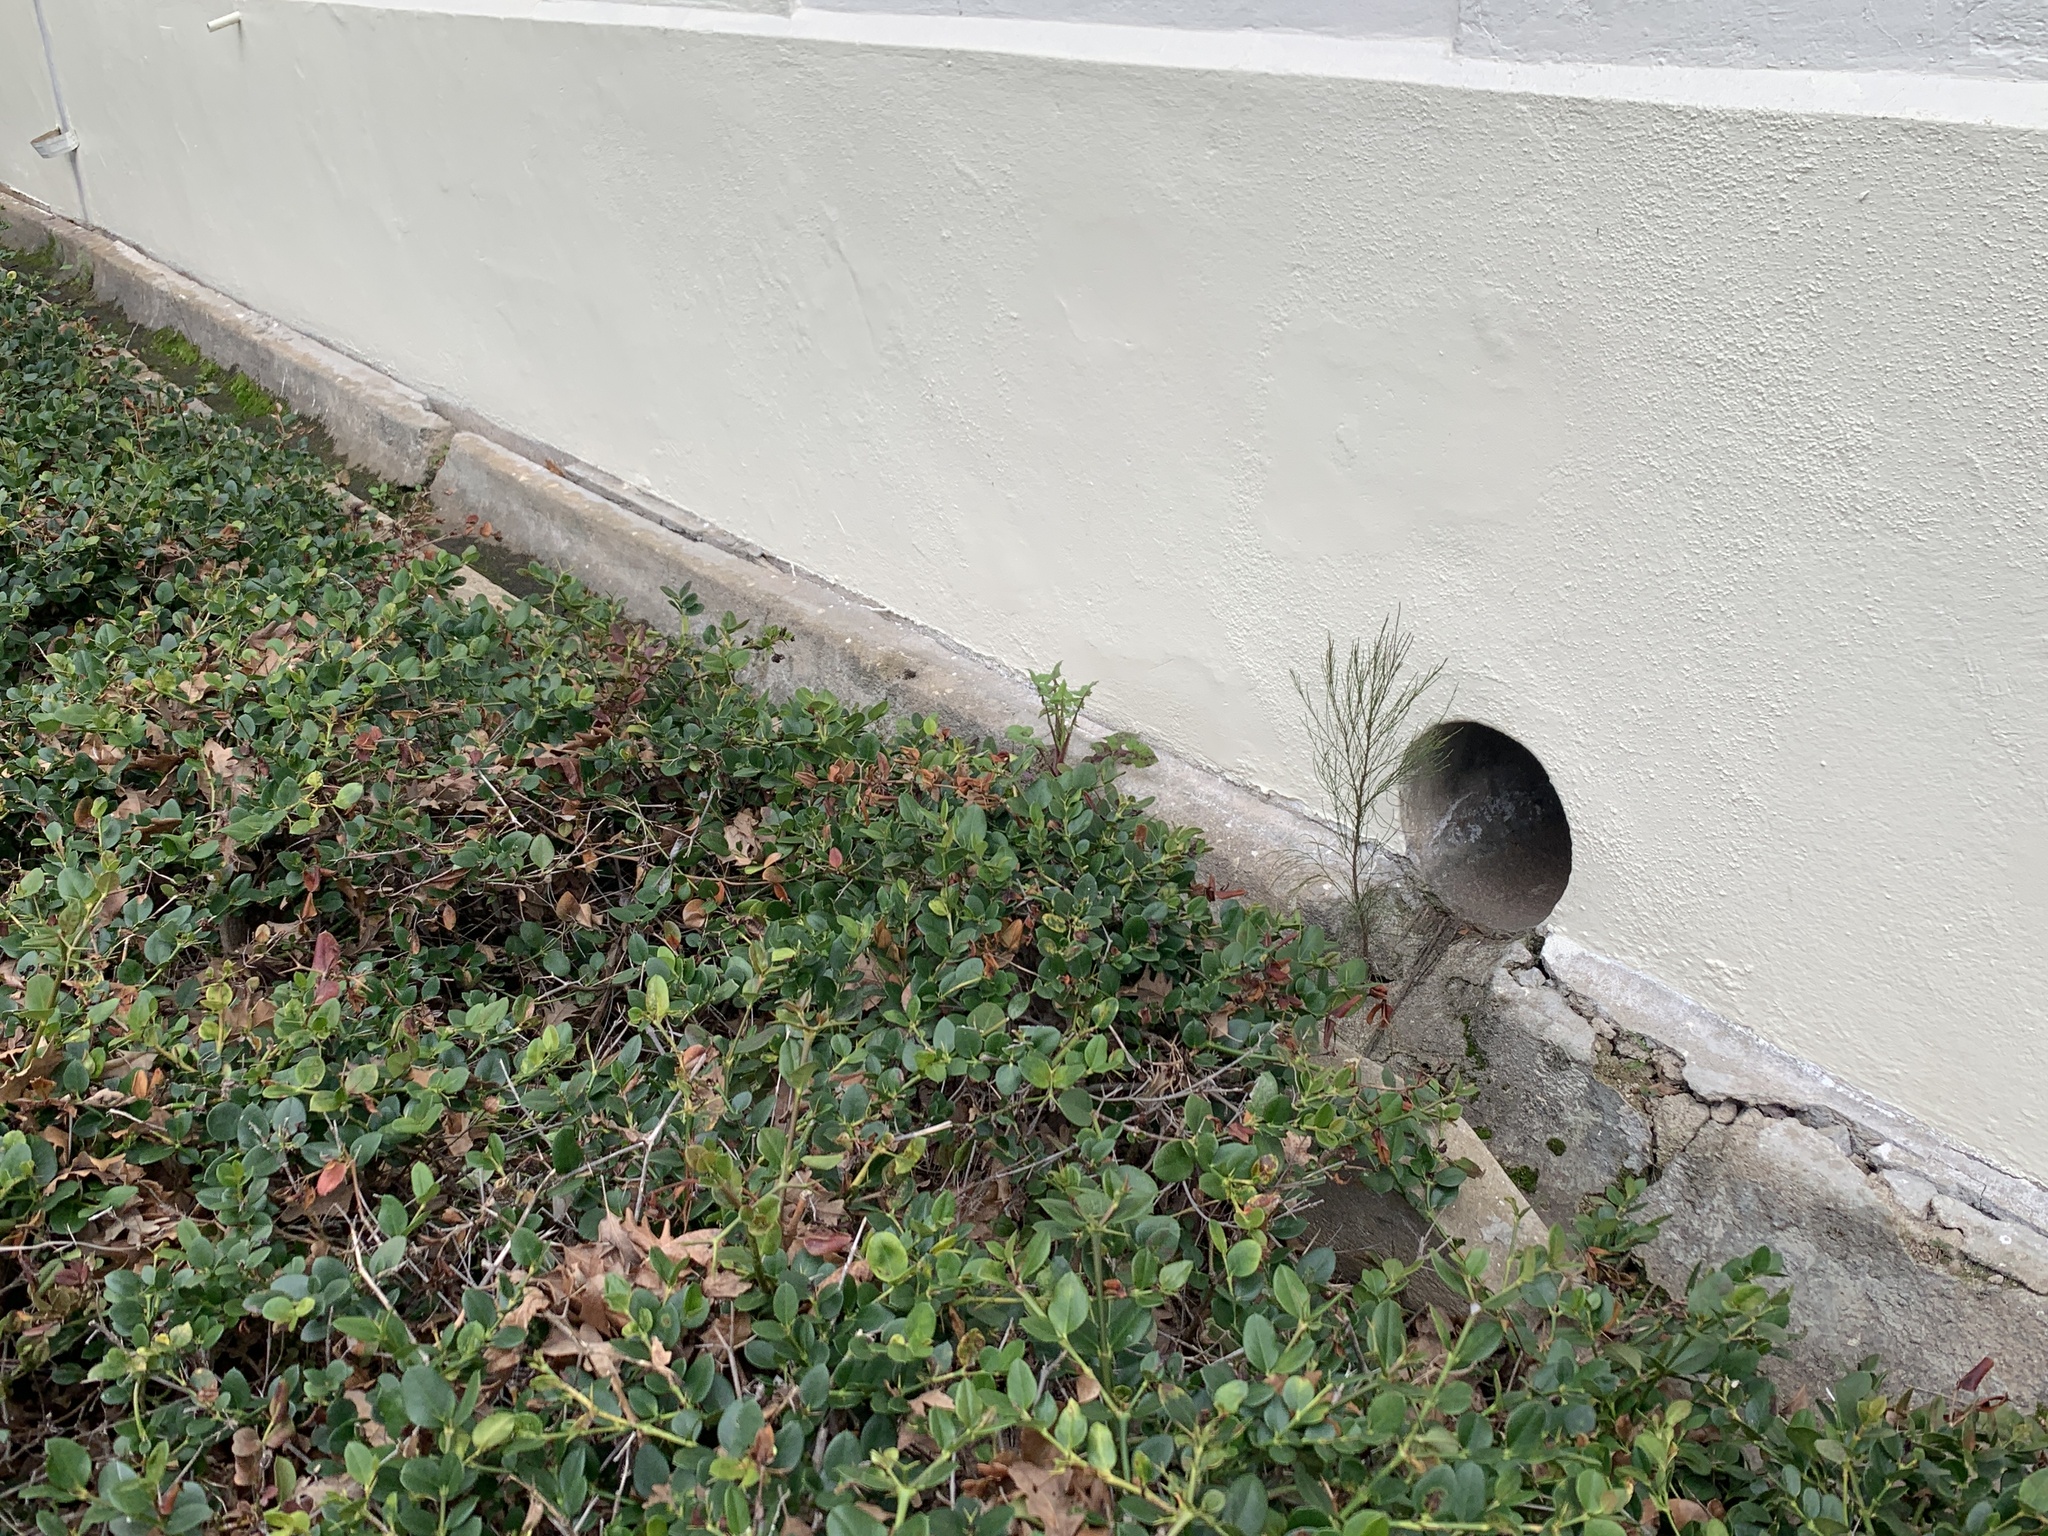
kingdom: Plantae
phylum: Tracheophyta
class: Magnoliopsida
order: Fagales
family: Casuarinaceae
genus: Casuarina
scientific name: Casuarina cunninghamiana
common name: River sheoak
